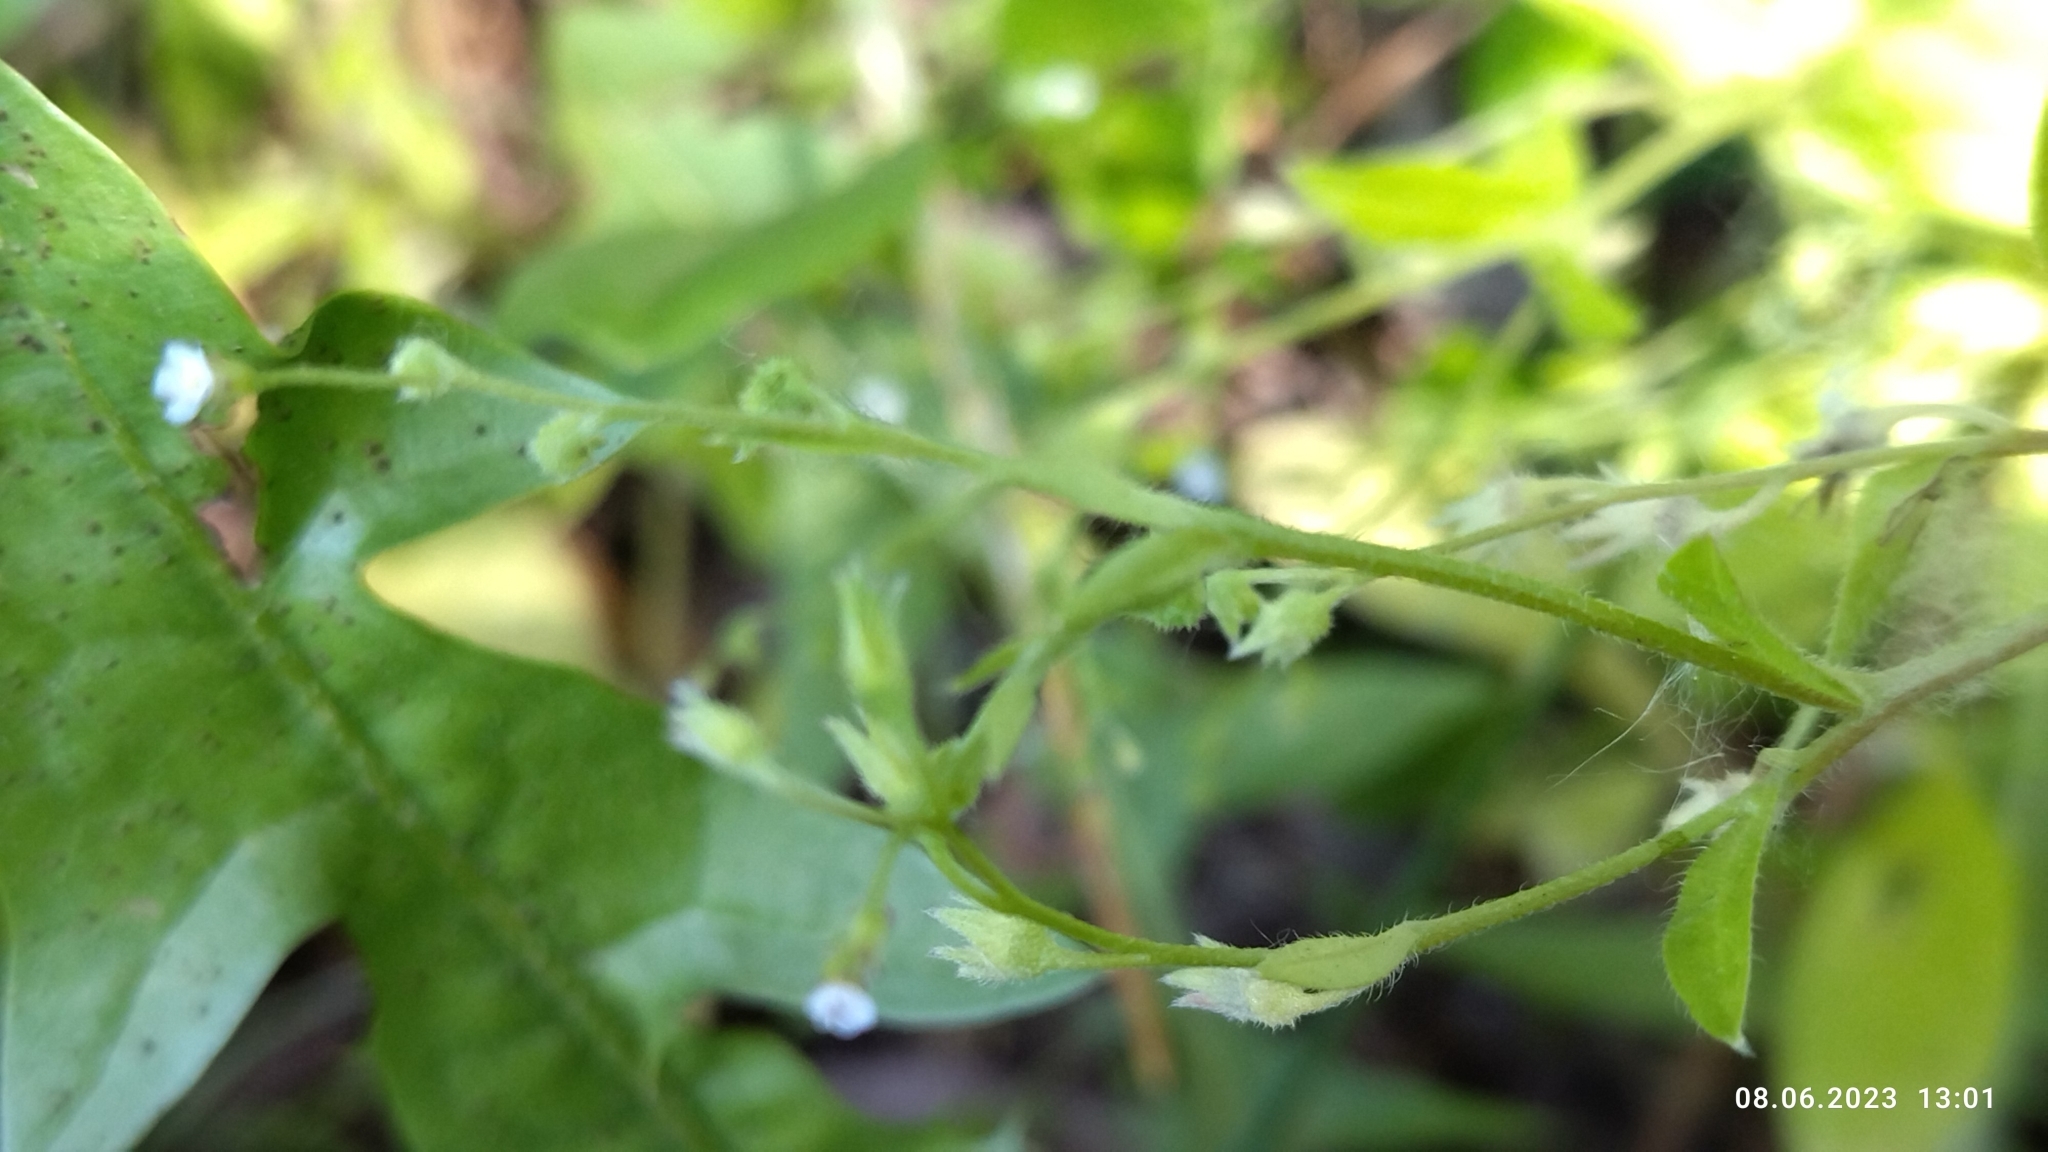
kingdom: Plantae
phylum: Tracheophyta
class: Magnoliopsida
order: Boraginales
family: Boraginaceae
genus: Myosotis
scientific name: Myosotis sparsiflora
